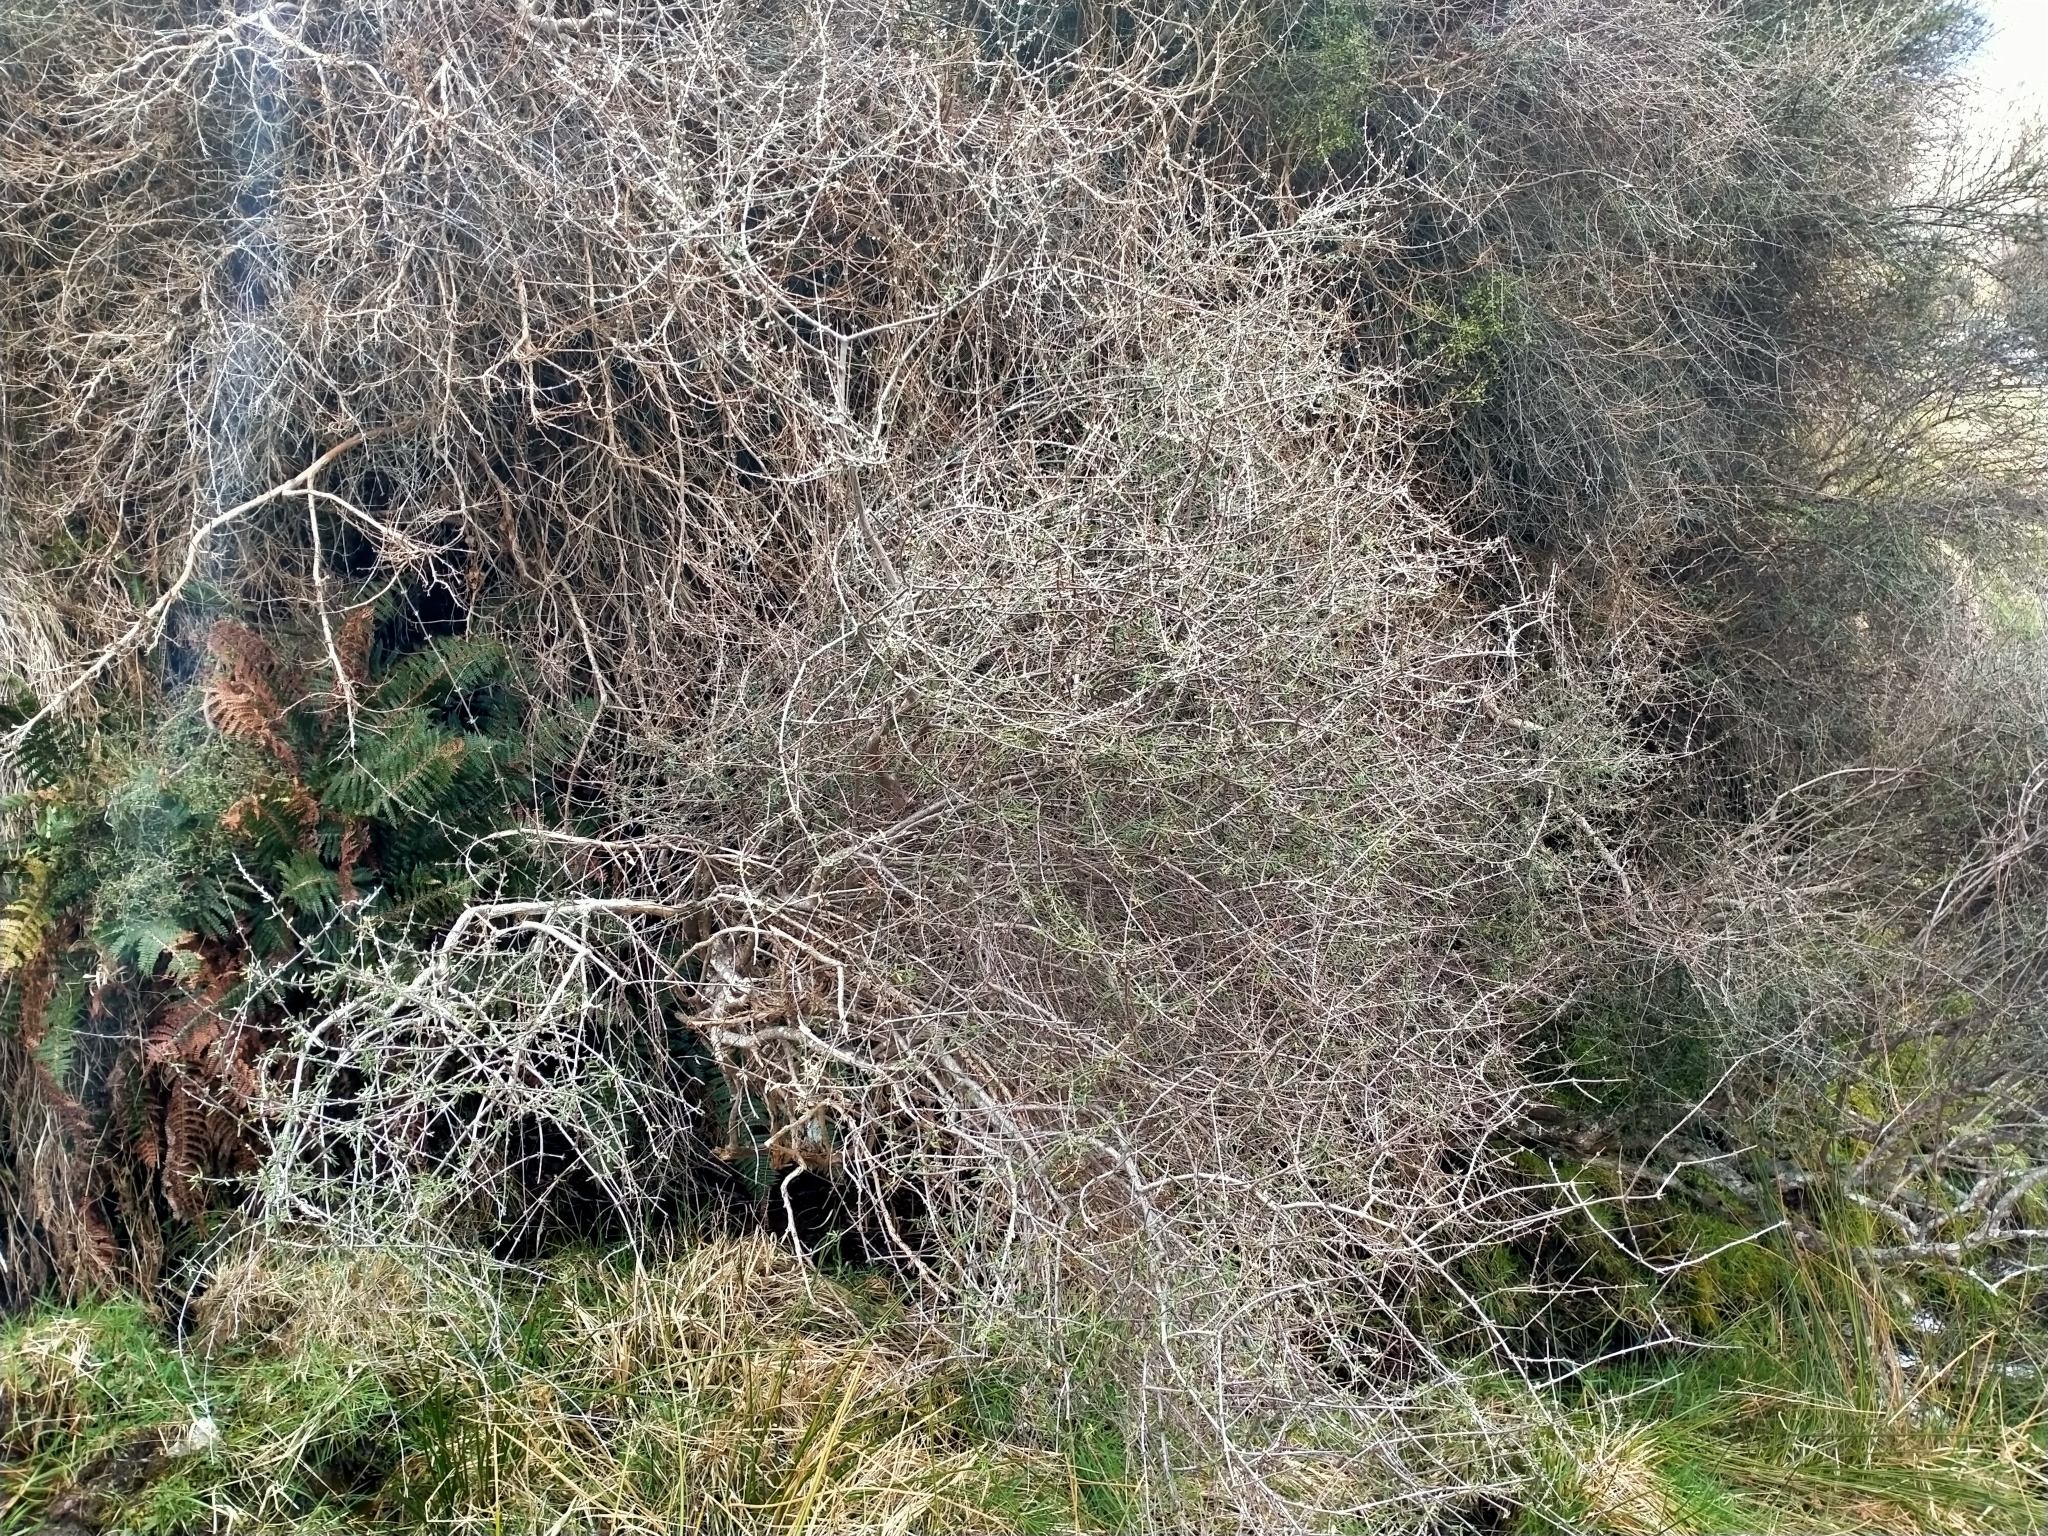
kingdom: Plantae
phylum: Tracheophyta
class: Magnoliopsida
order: Asterales
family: Asteraceae
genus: Olearia
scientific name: Olearia bullata
